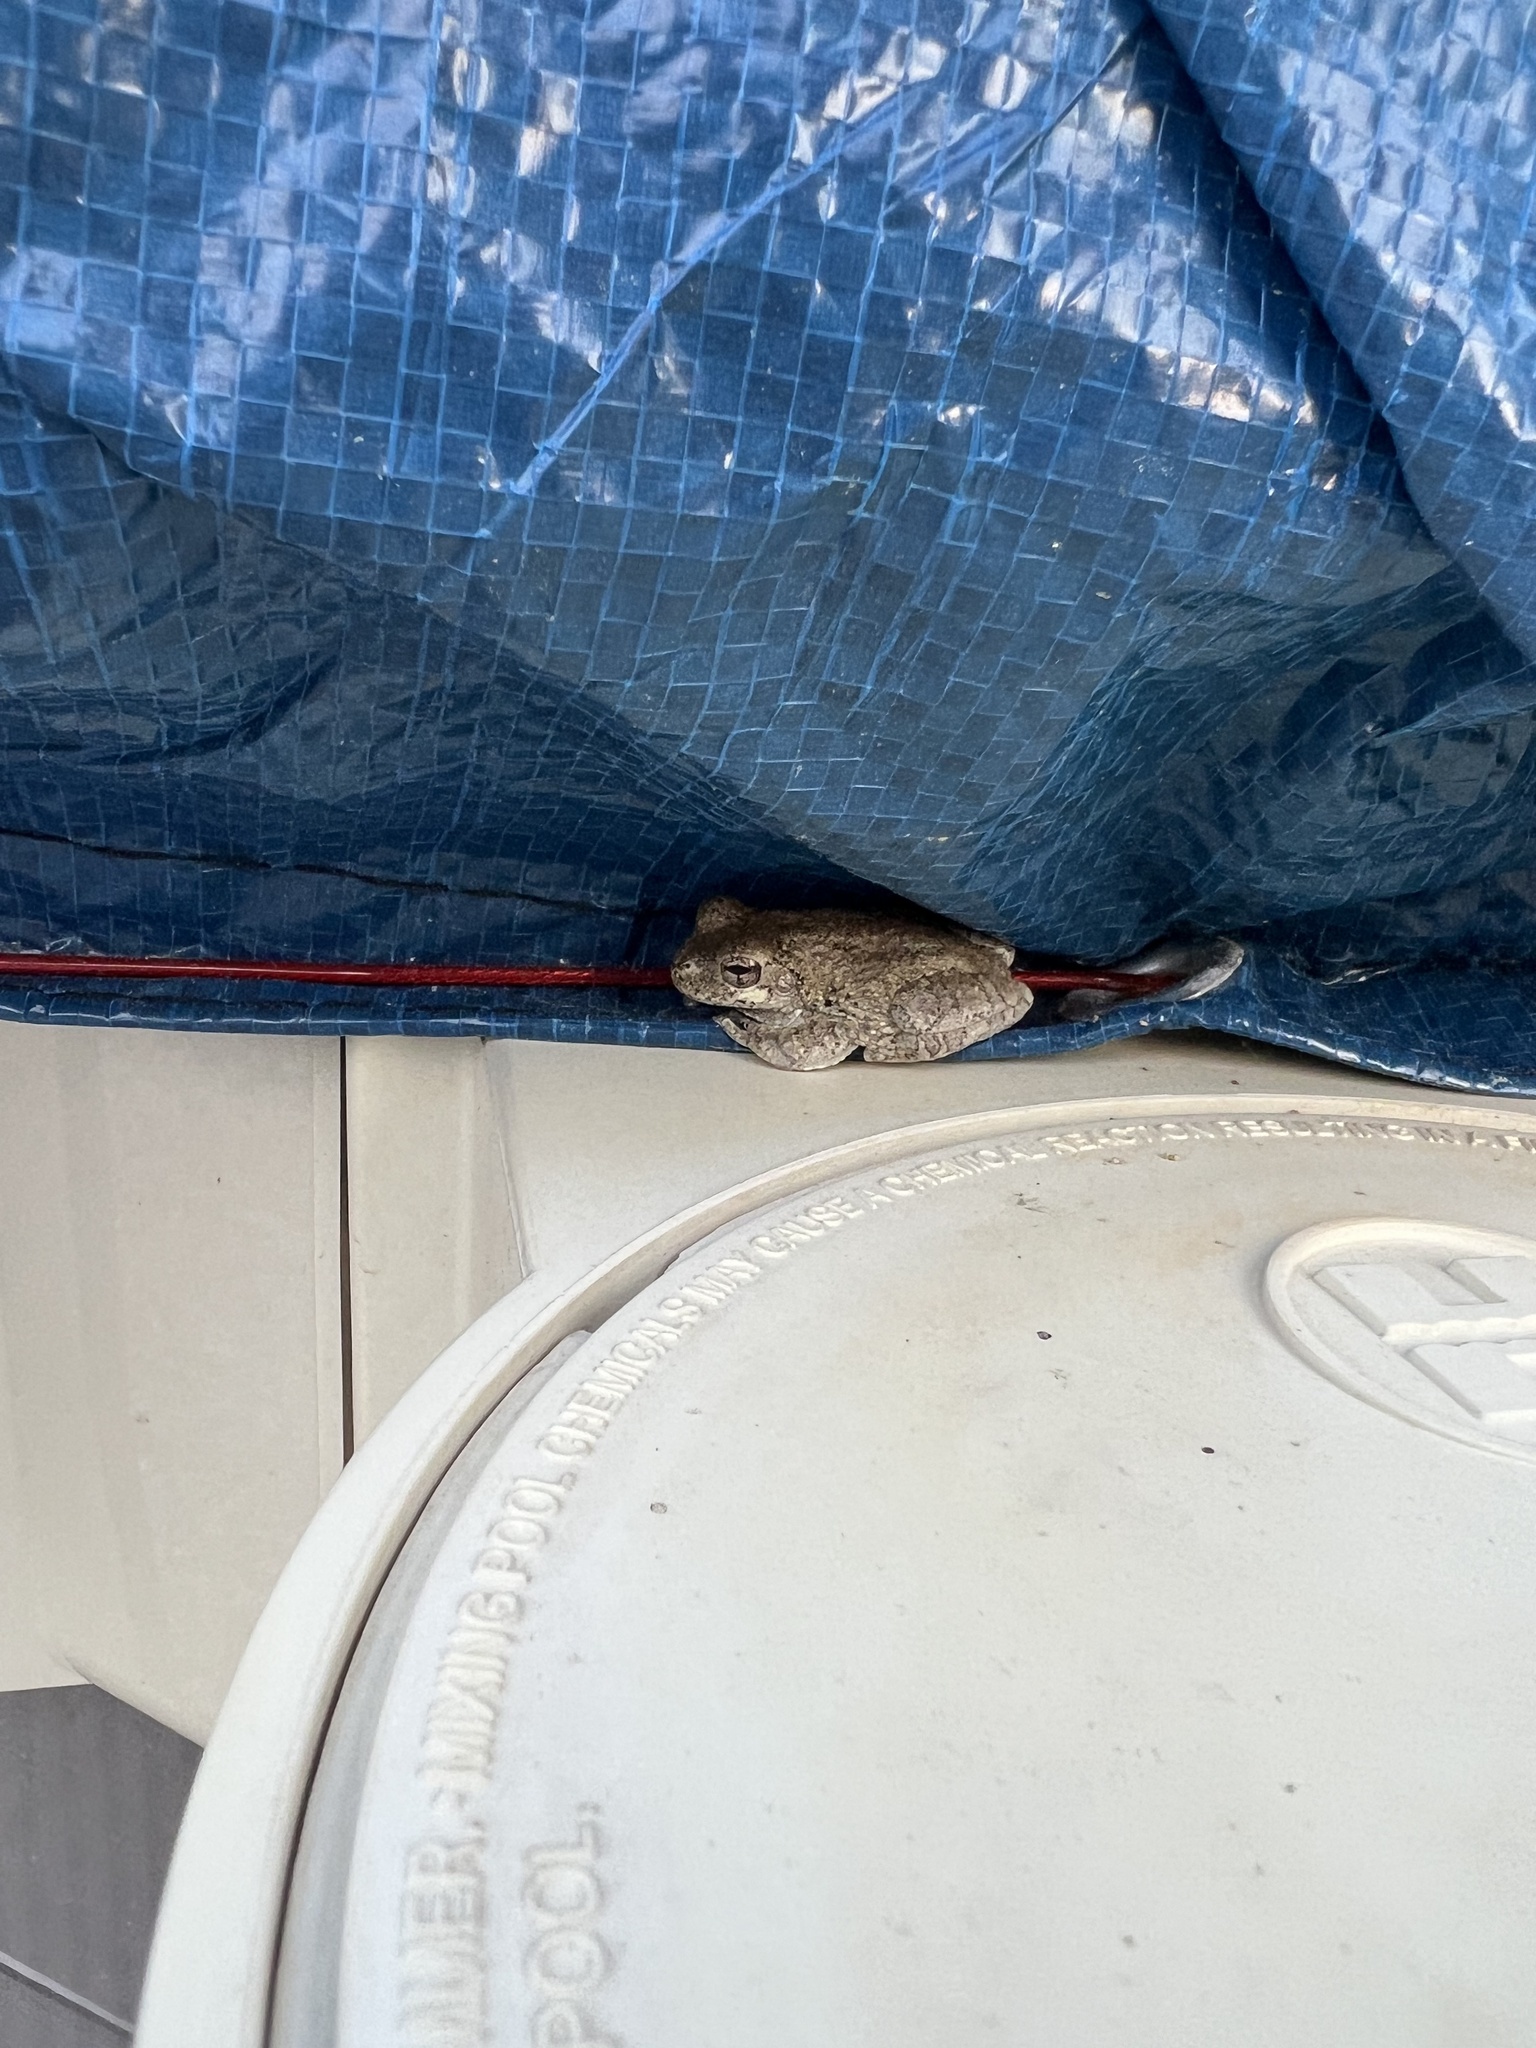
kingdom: Animalia
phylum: Chordata
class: Amphibia
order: Anura
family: Hylidae
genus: Dryophytes
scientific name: Dryophytes chrysoscelis
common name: Cope's gray treefrog
